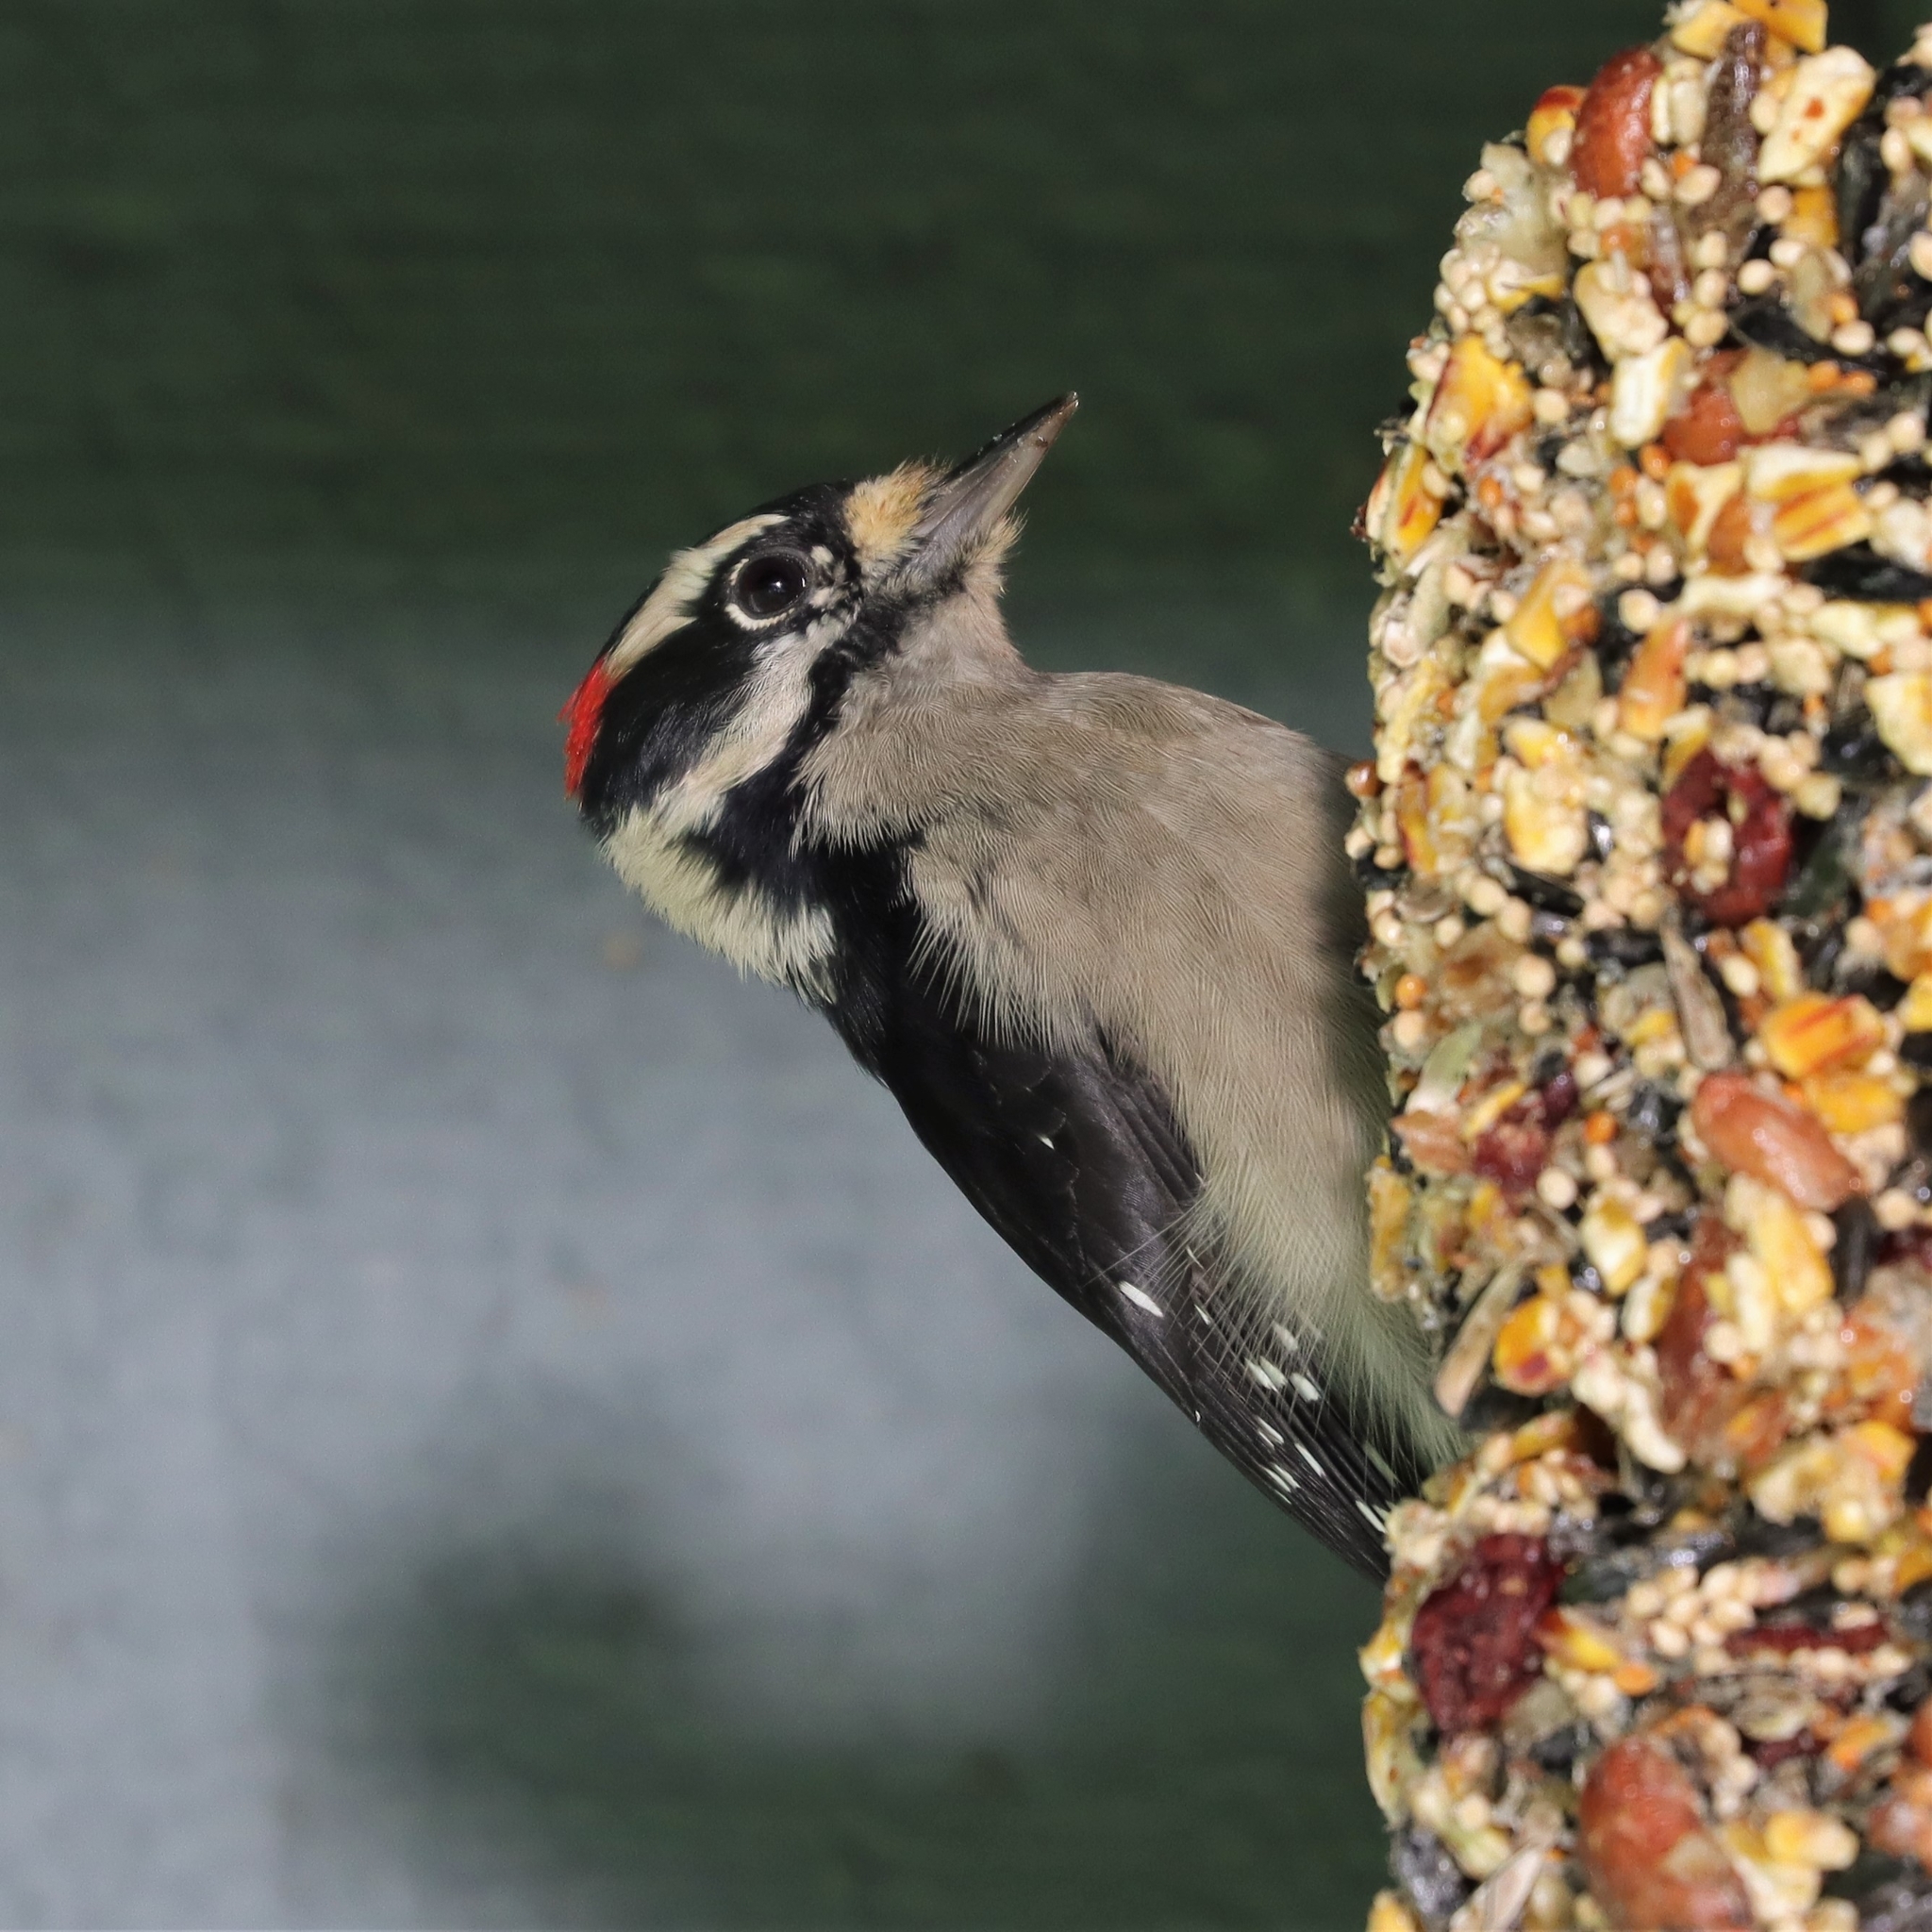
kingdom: Animalia
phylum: Chordata
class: Aves
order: Piciformes
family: Picidae
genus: Dryobates
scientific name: Dryobates pubescens
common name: Downy woodpecker
